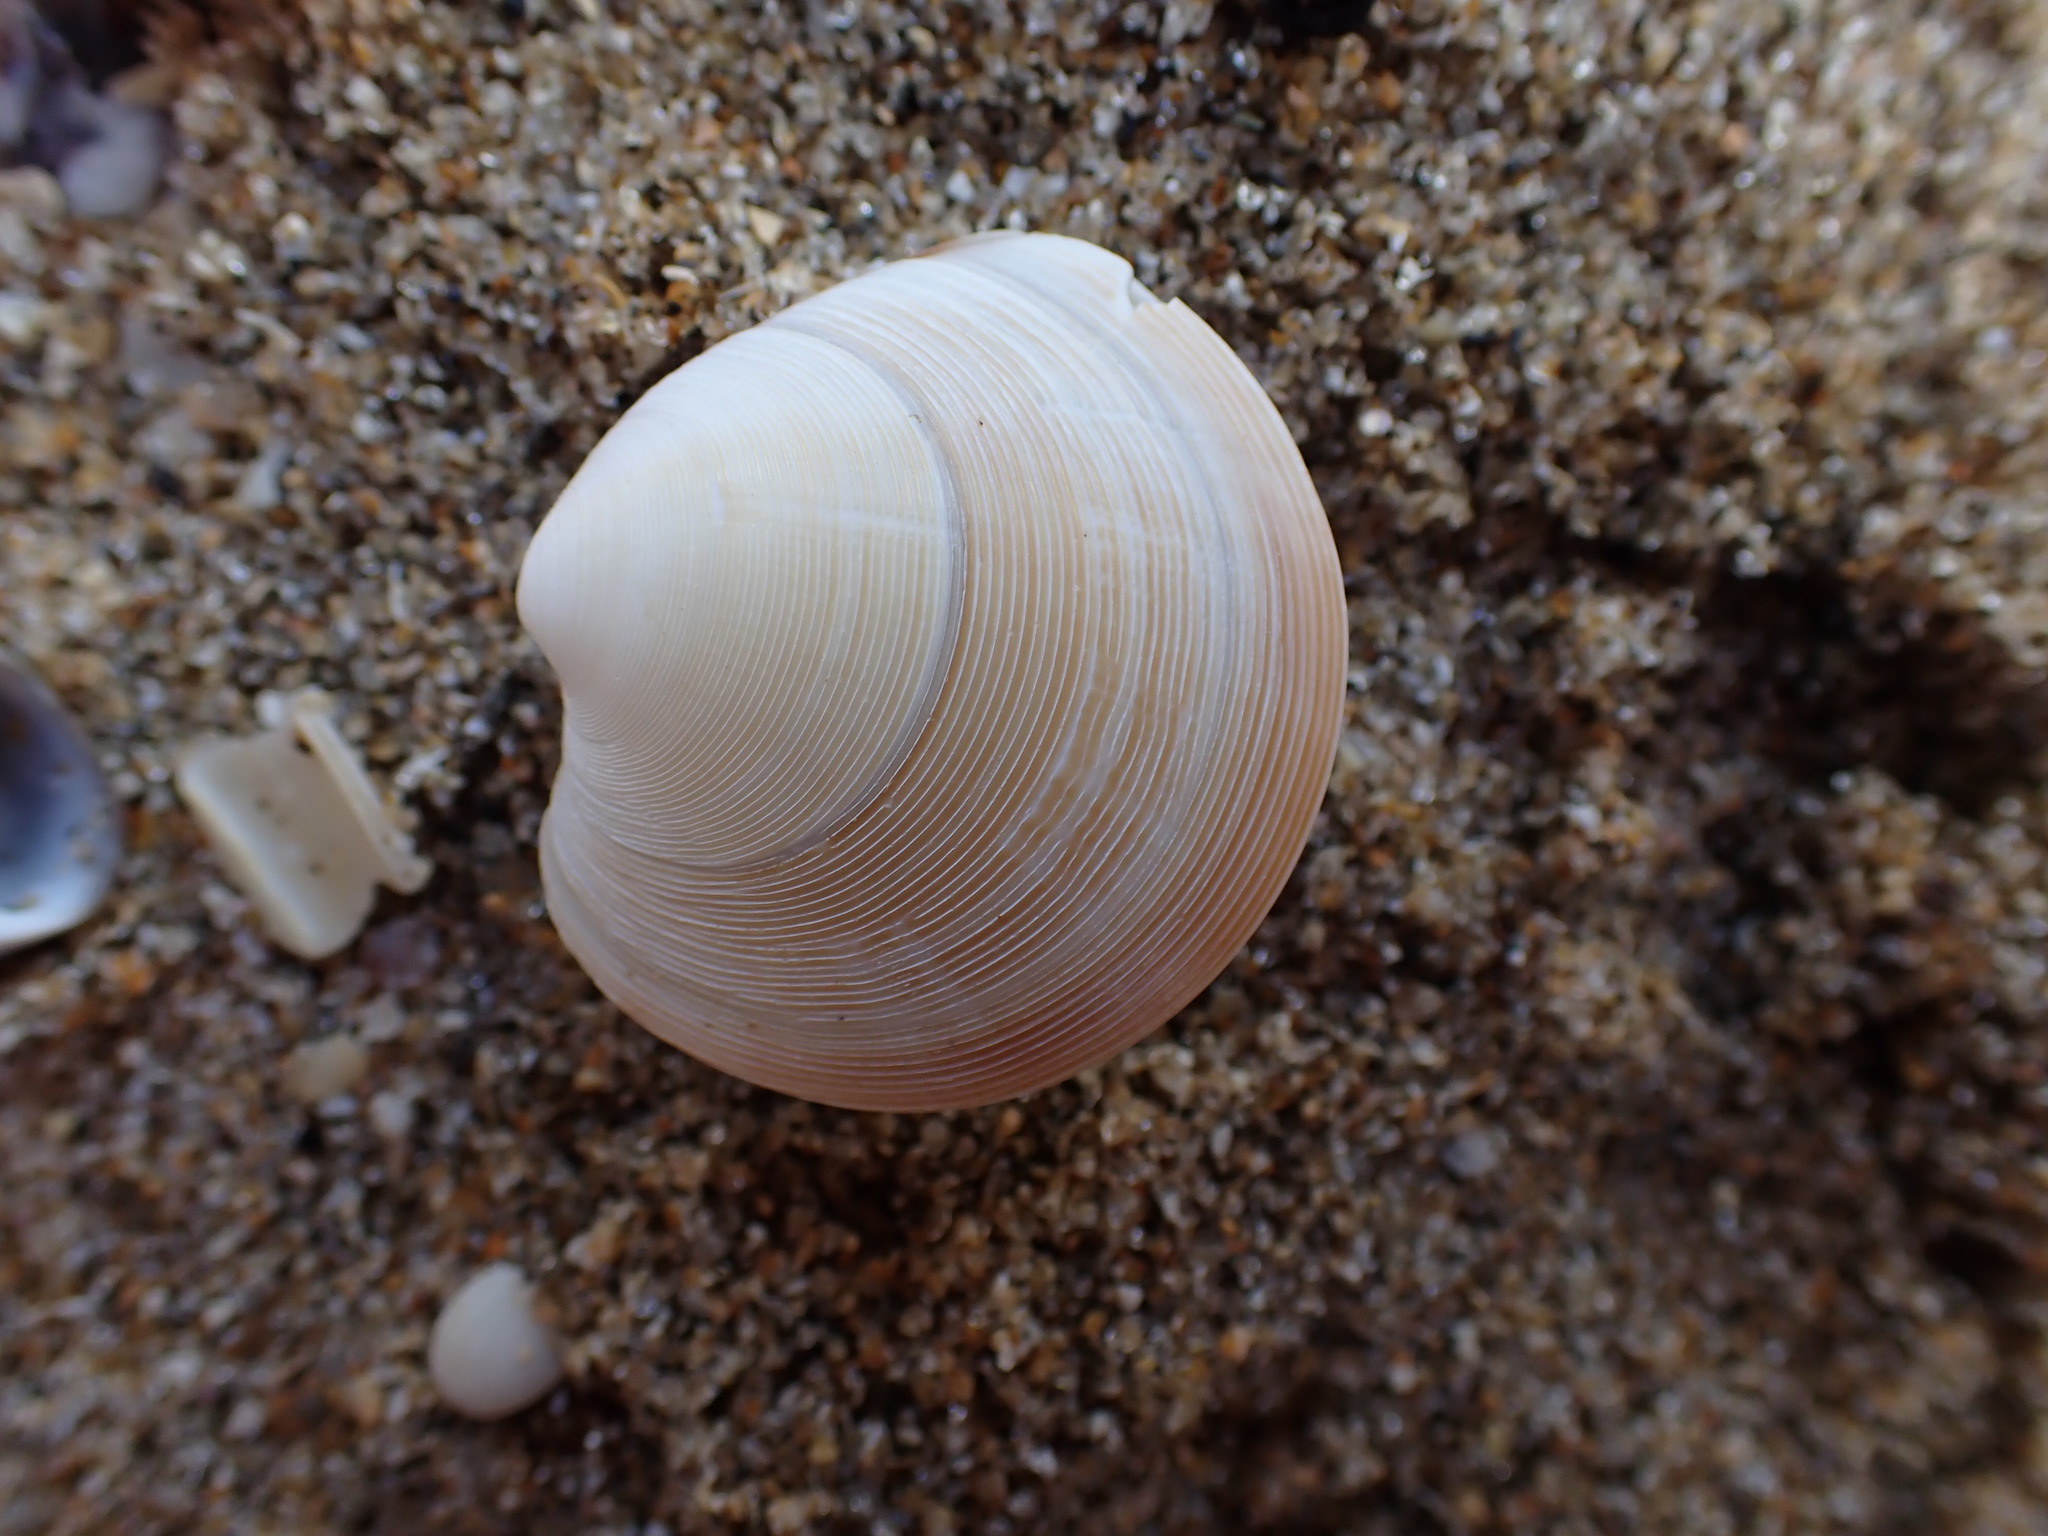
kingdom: Animalia
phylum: Mollusca
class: Bivalvia
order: Venerida
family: Veneridae
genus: Dosinia
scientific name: Dosinia subrosea
